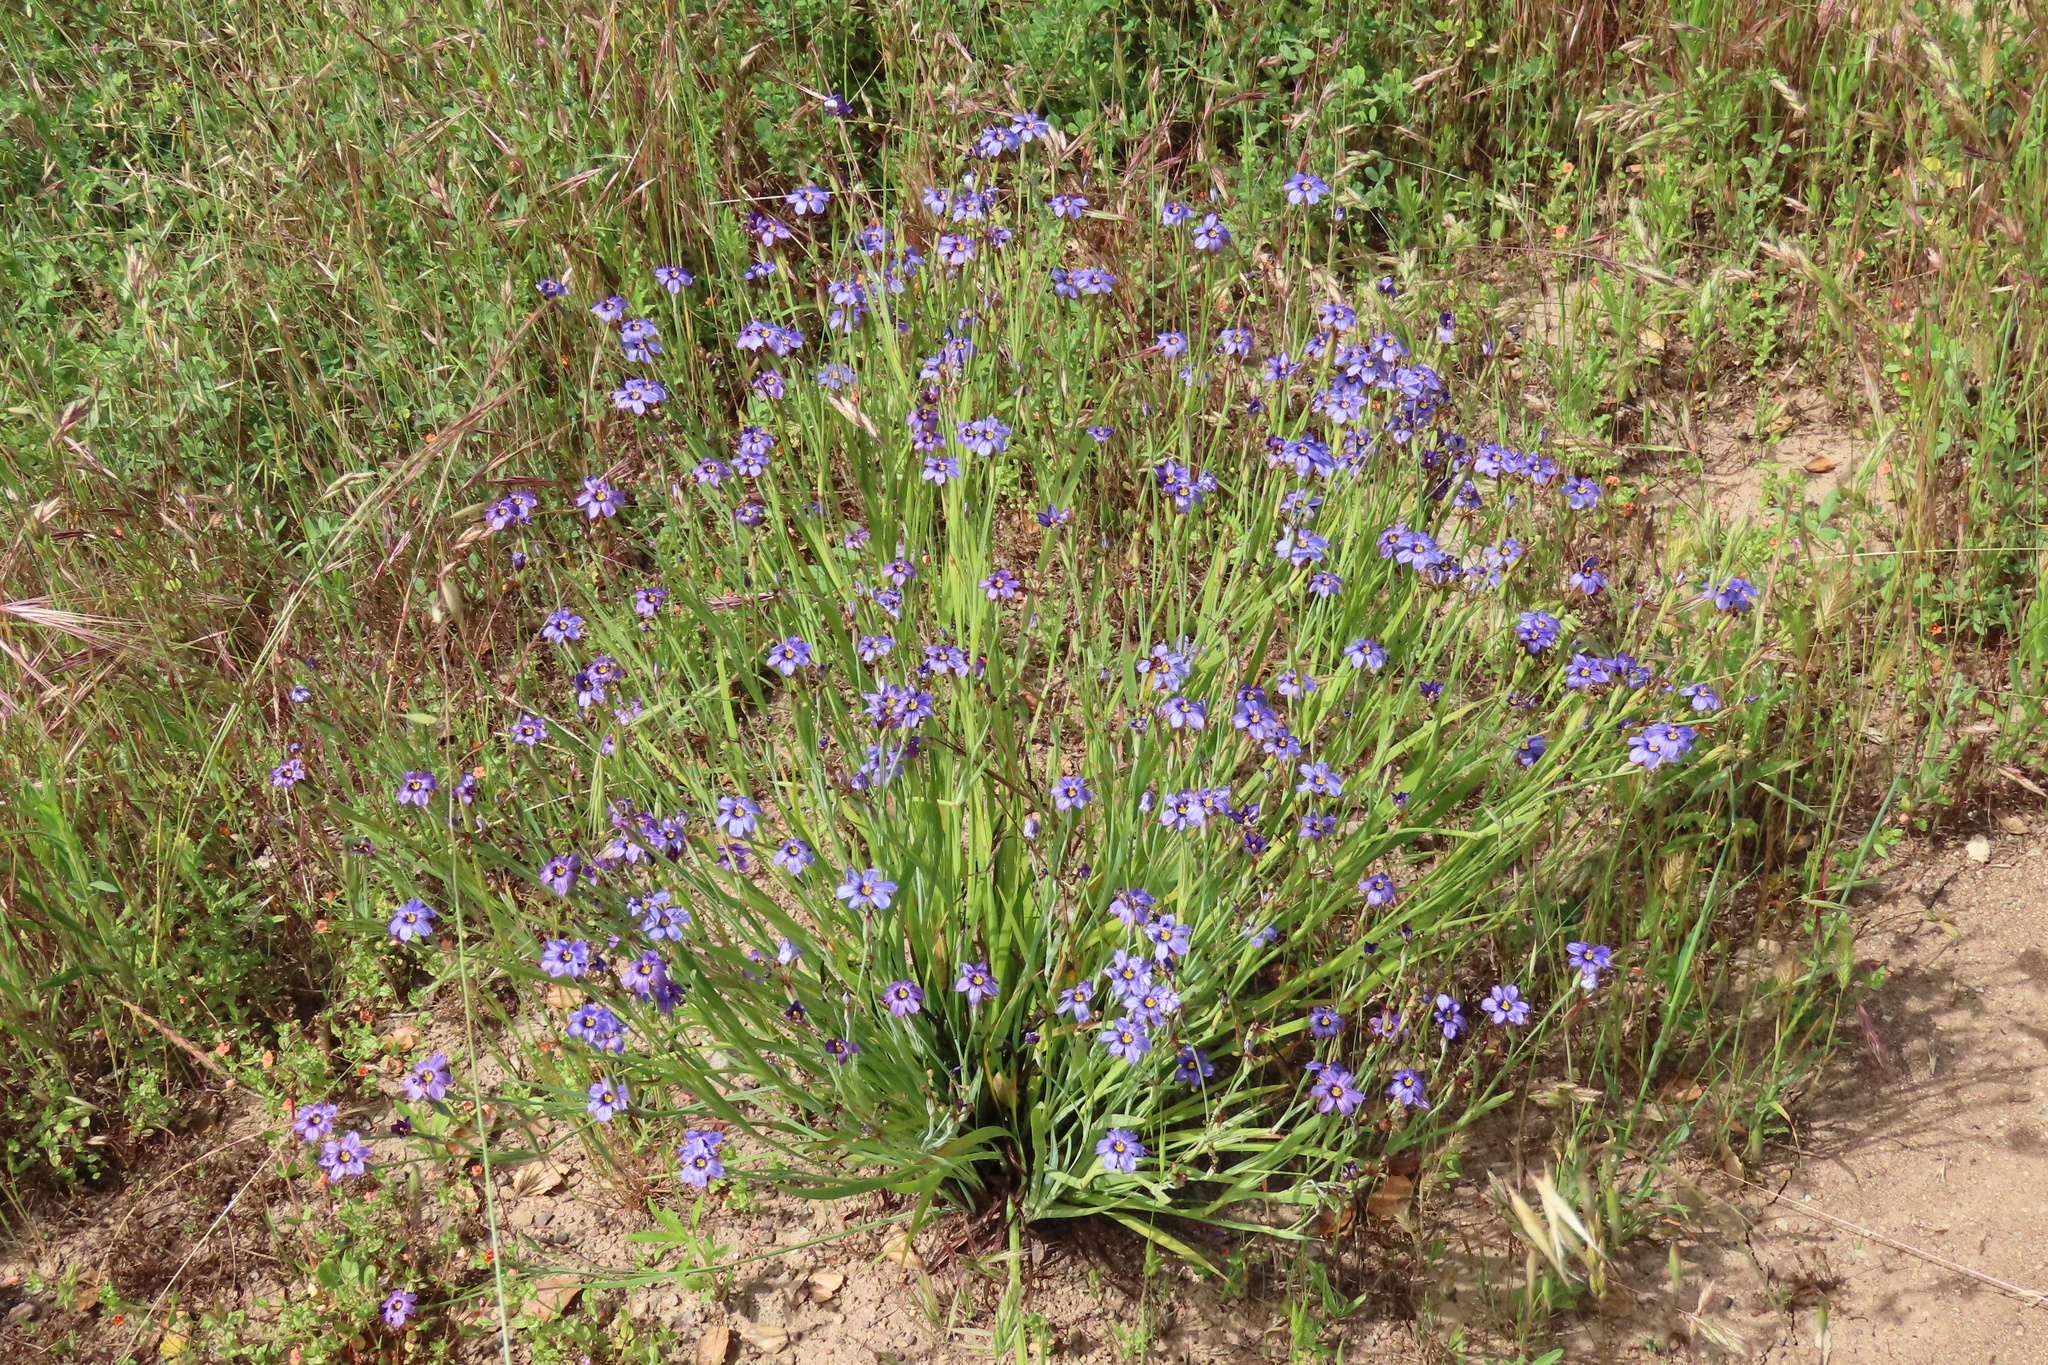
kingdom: Plantae
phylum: Tracheophyta
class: Liliopsida
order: Asparagales
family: Iridaceae
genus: Sisyrinchium
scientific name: Sisyrinchium bellum
